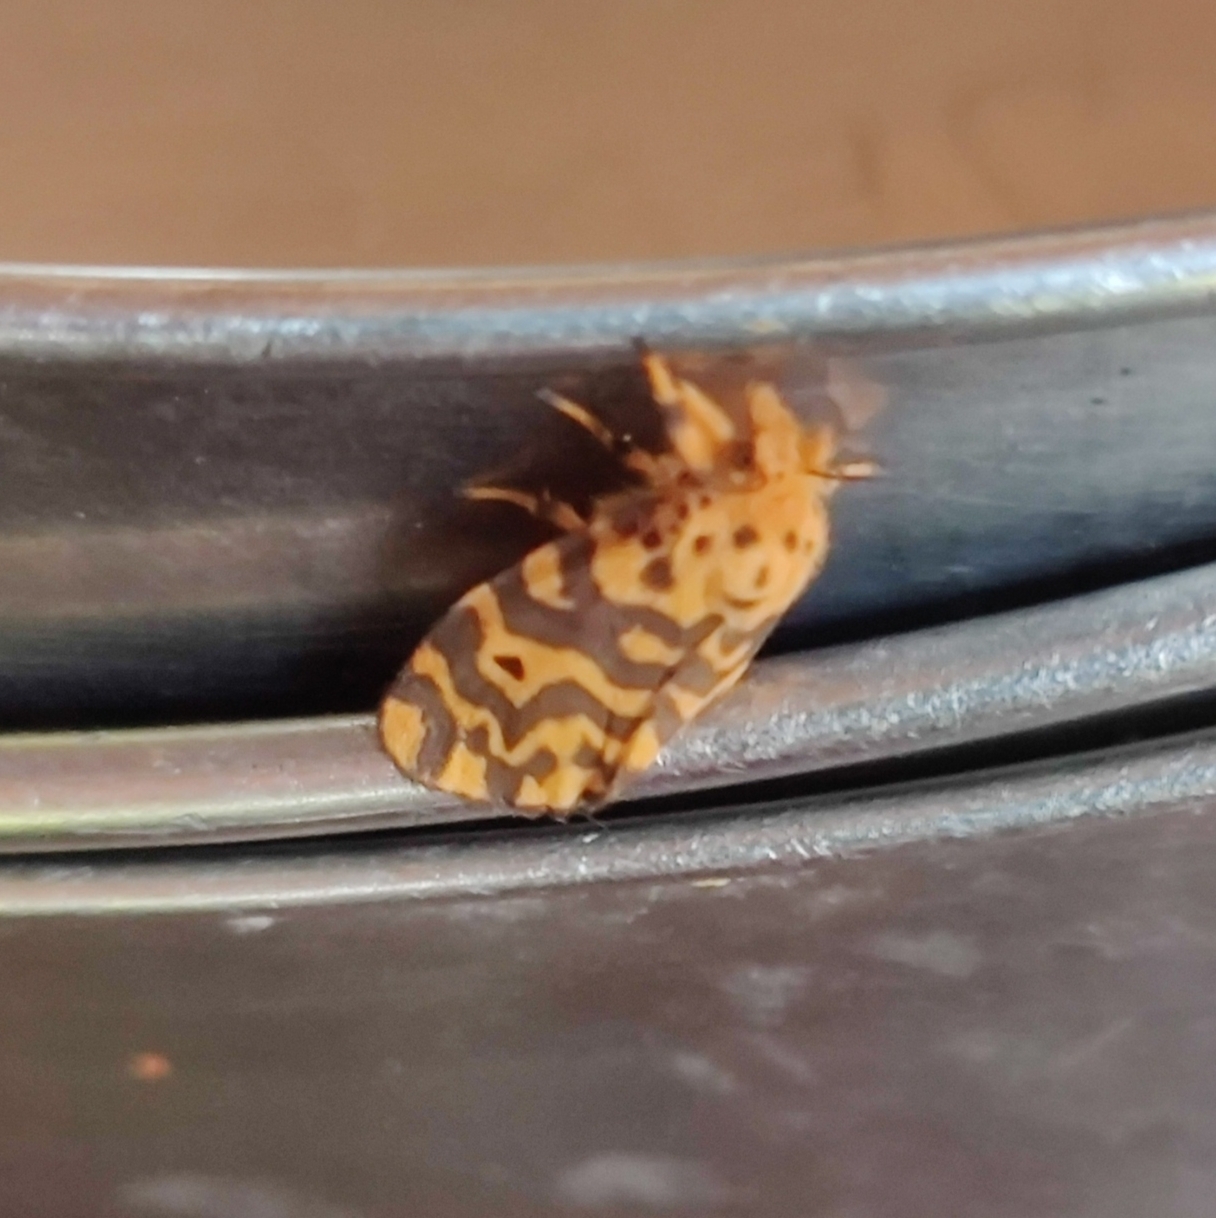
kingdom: Animalia
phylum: Arthropoda
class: Insecta
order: Lepidoptera
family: Erebidae
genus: Nepita
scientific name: Nepita conferta
